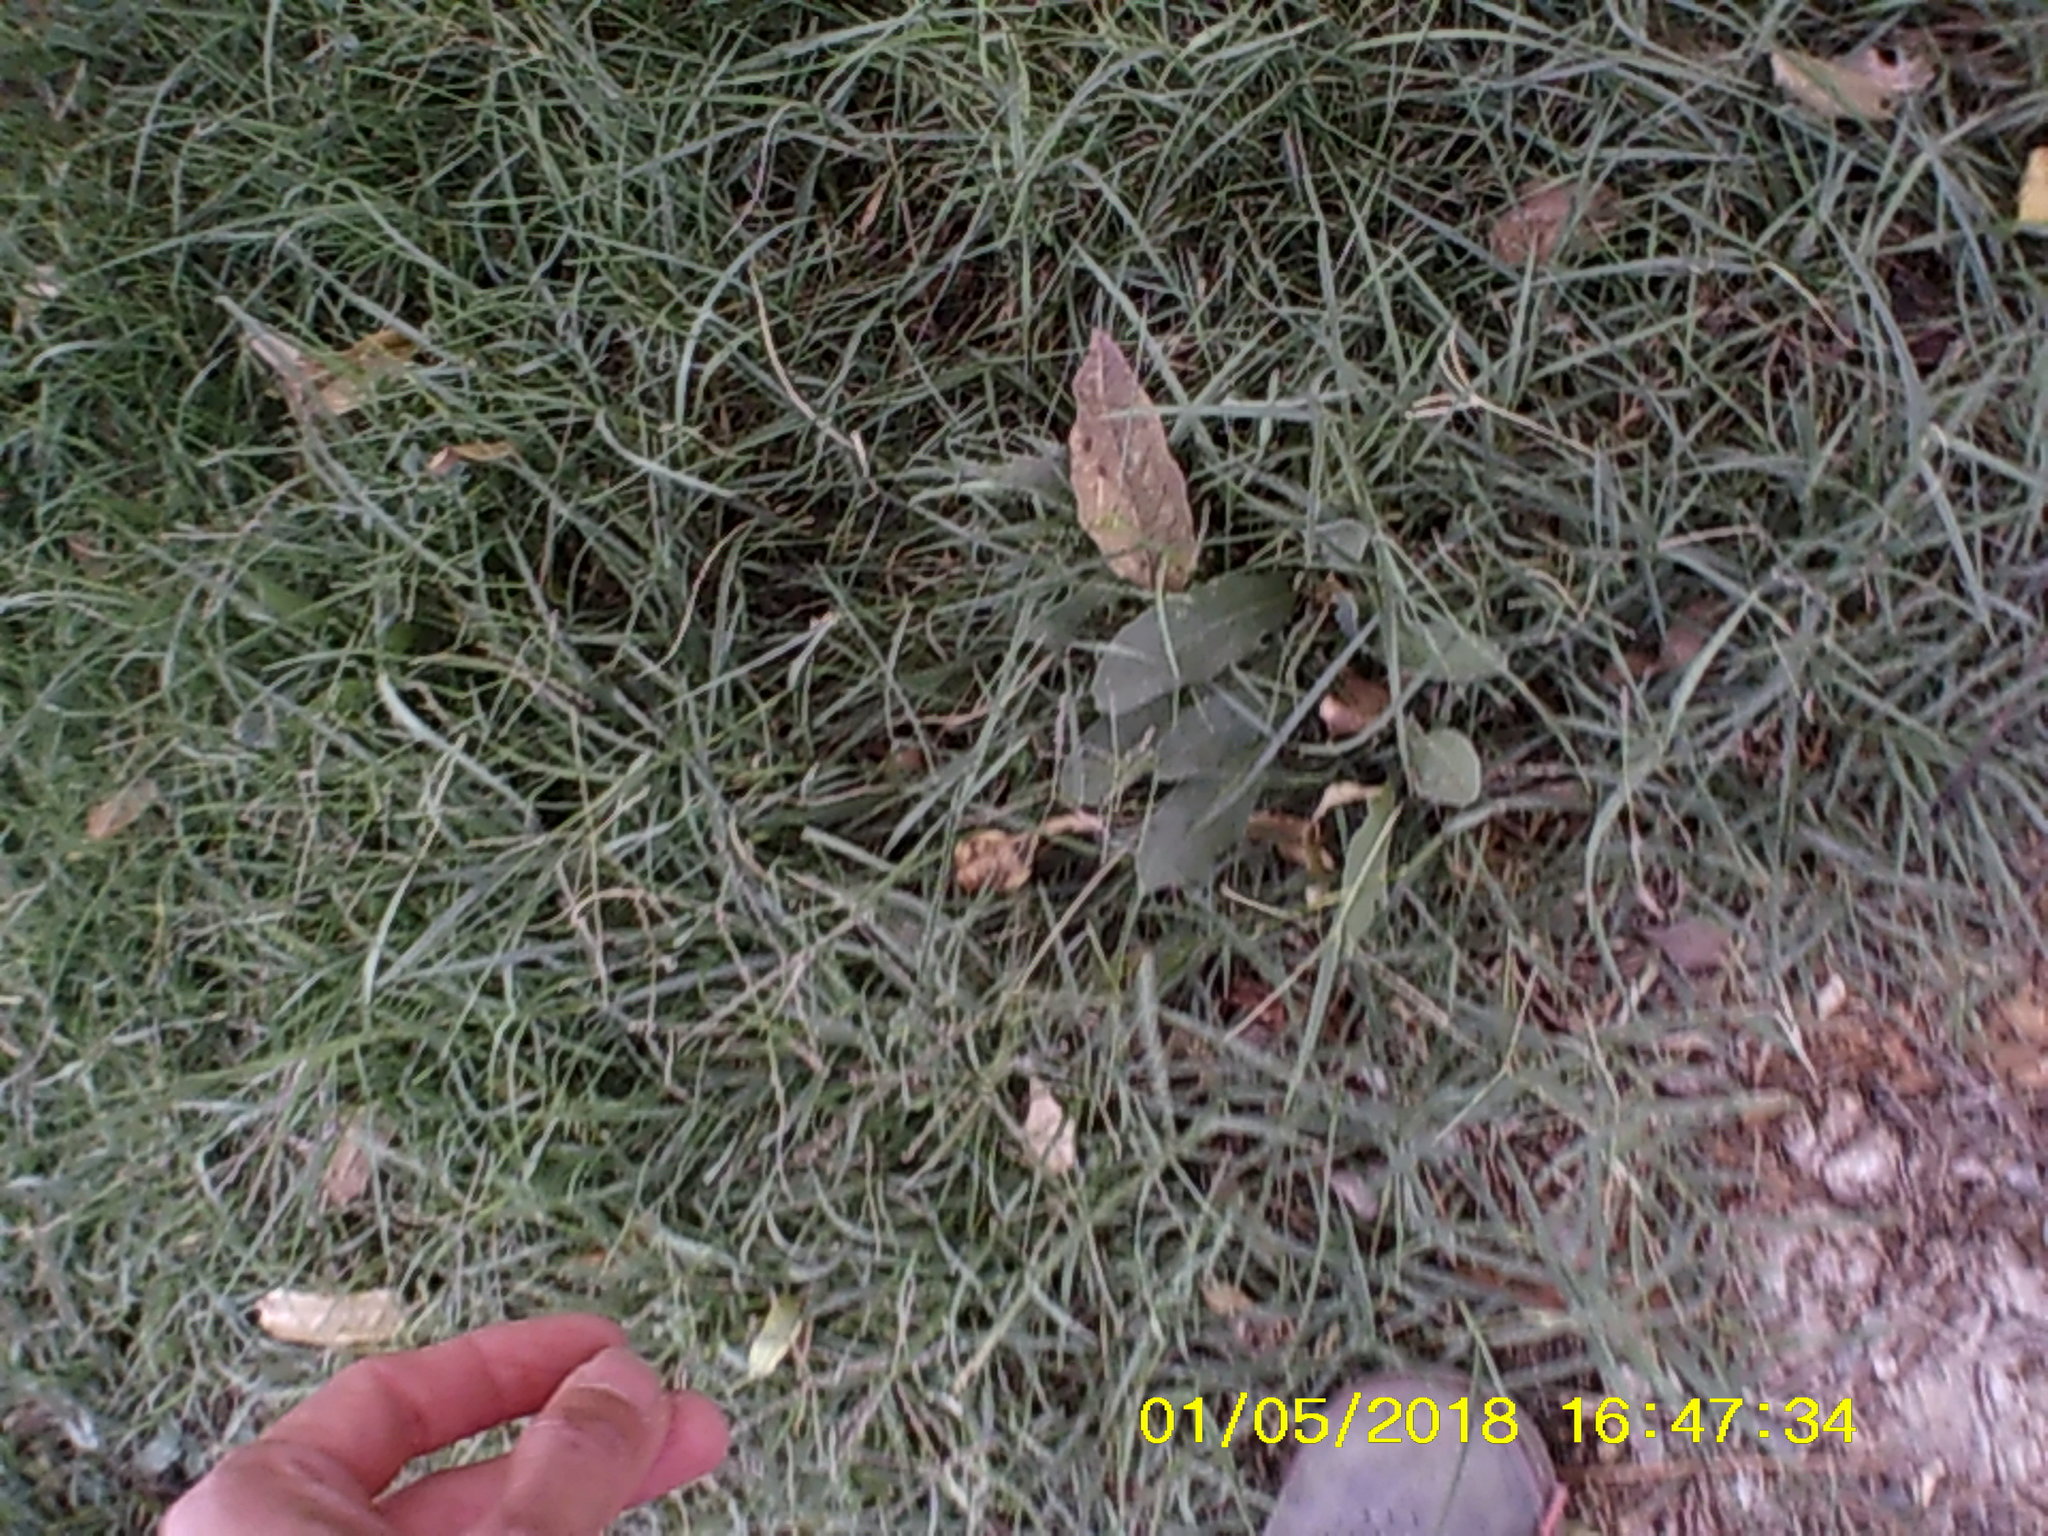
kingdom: Plantae
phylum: Tracheophyta
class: Liliopsida
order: Poales
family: Poaceae
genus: Cynodon
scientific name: Cynodon dactylon
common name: Bermuda grass
